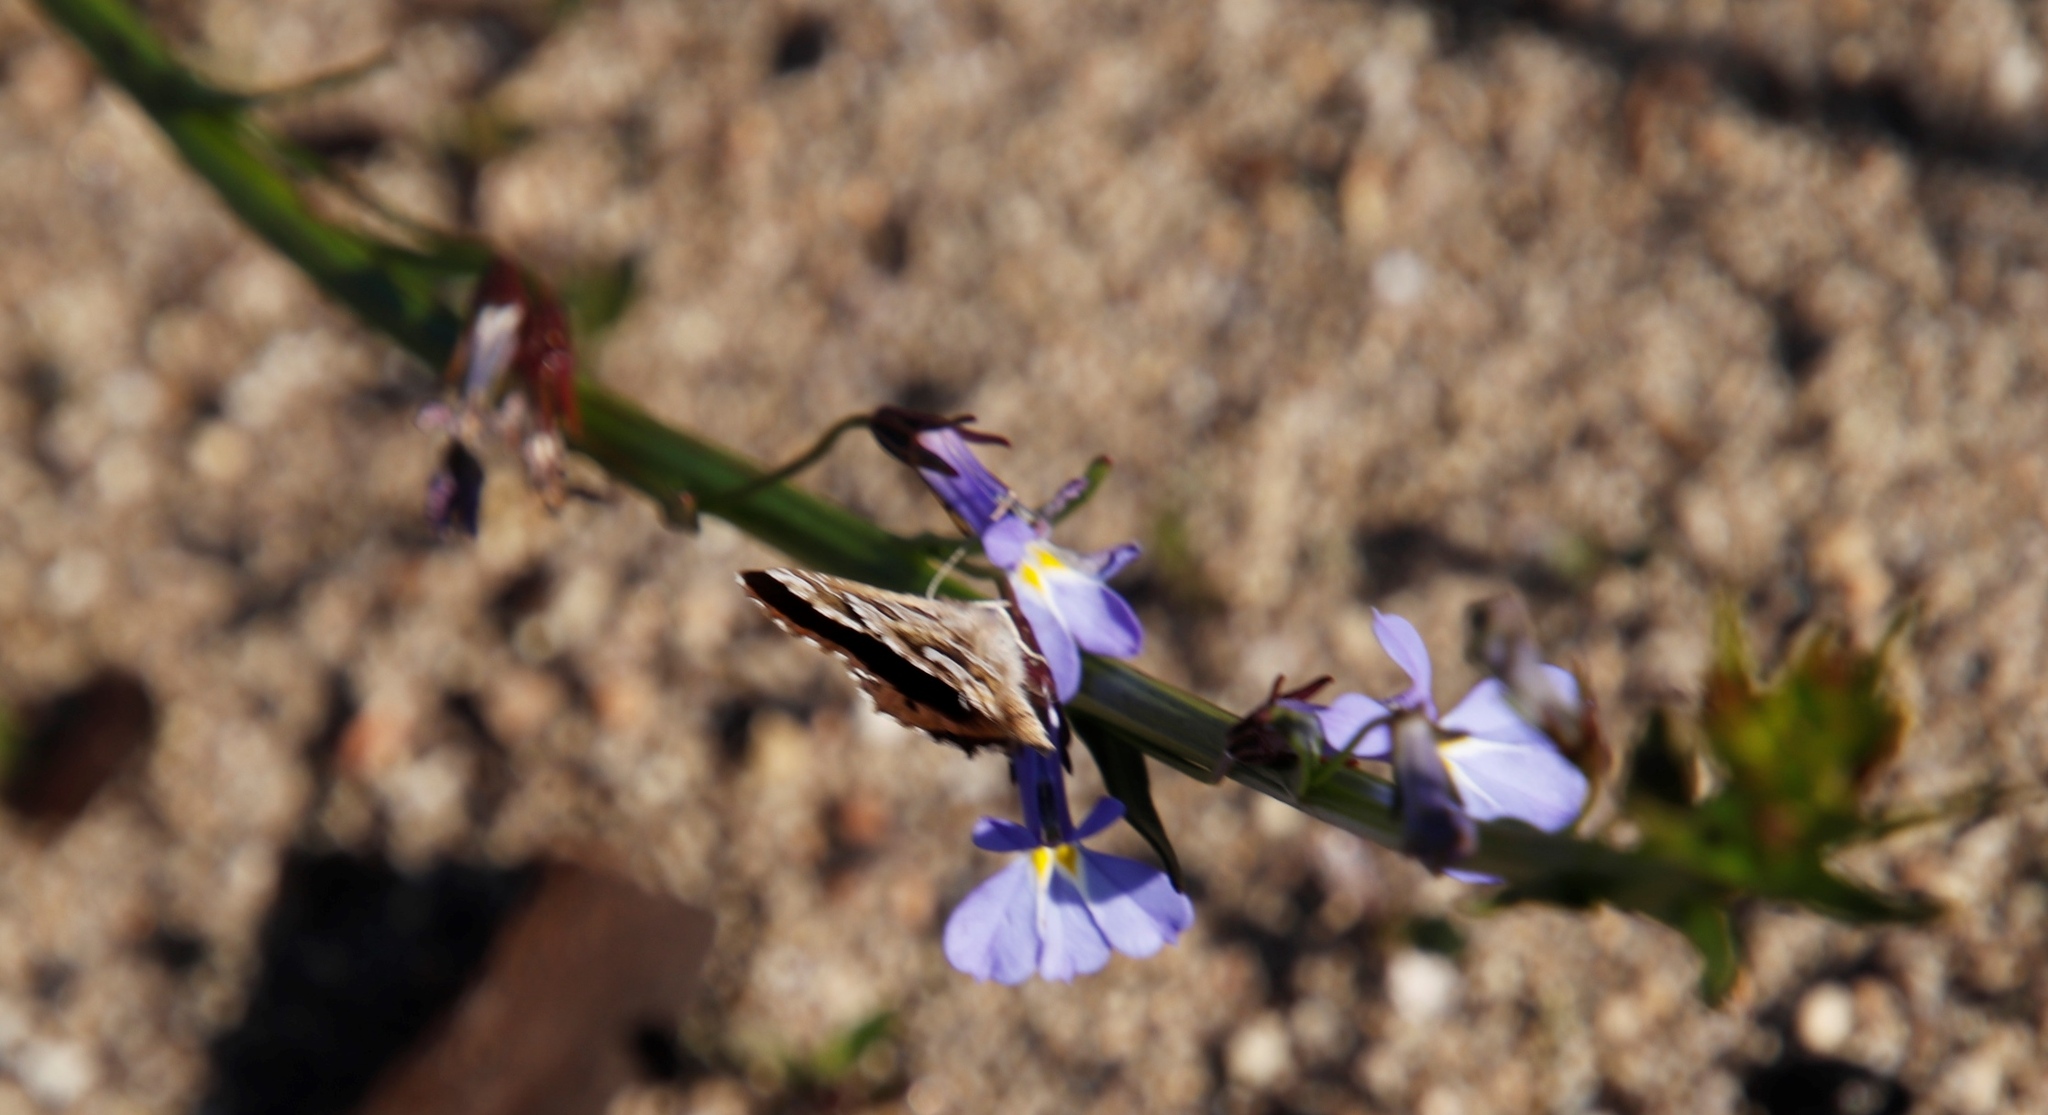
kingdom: Plantae
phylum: Tracheophyta
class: Magnoliopsida
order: Asterales
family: Campanulaceae
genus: Lobelia
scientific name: Lobelia comosa
